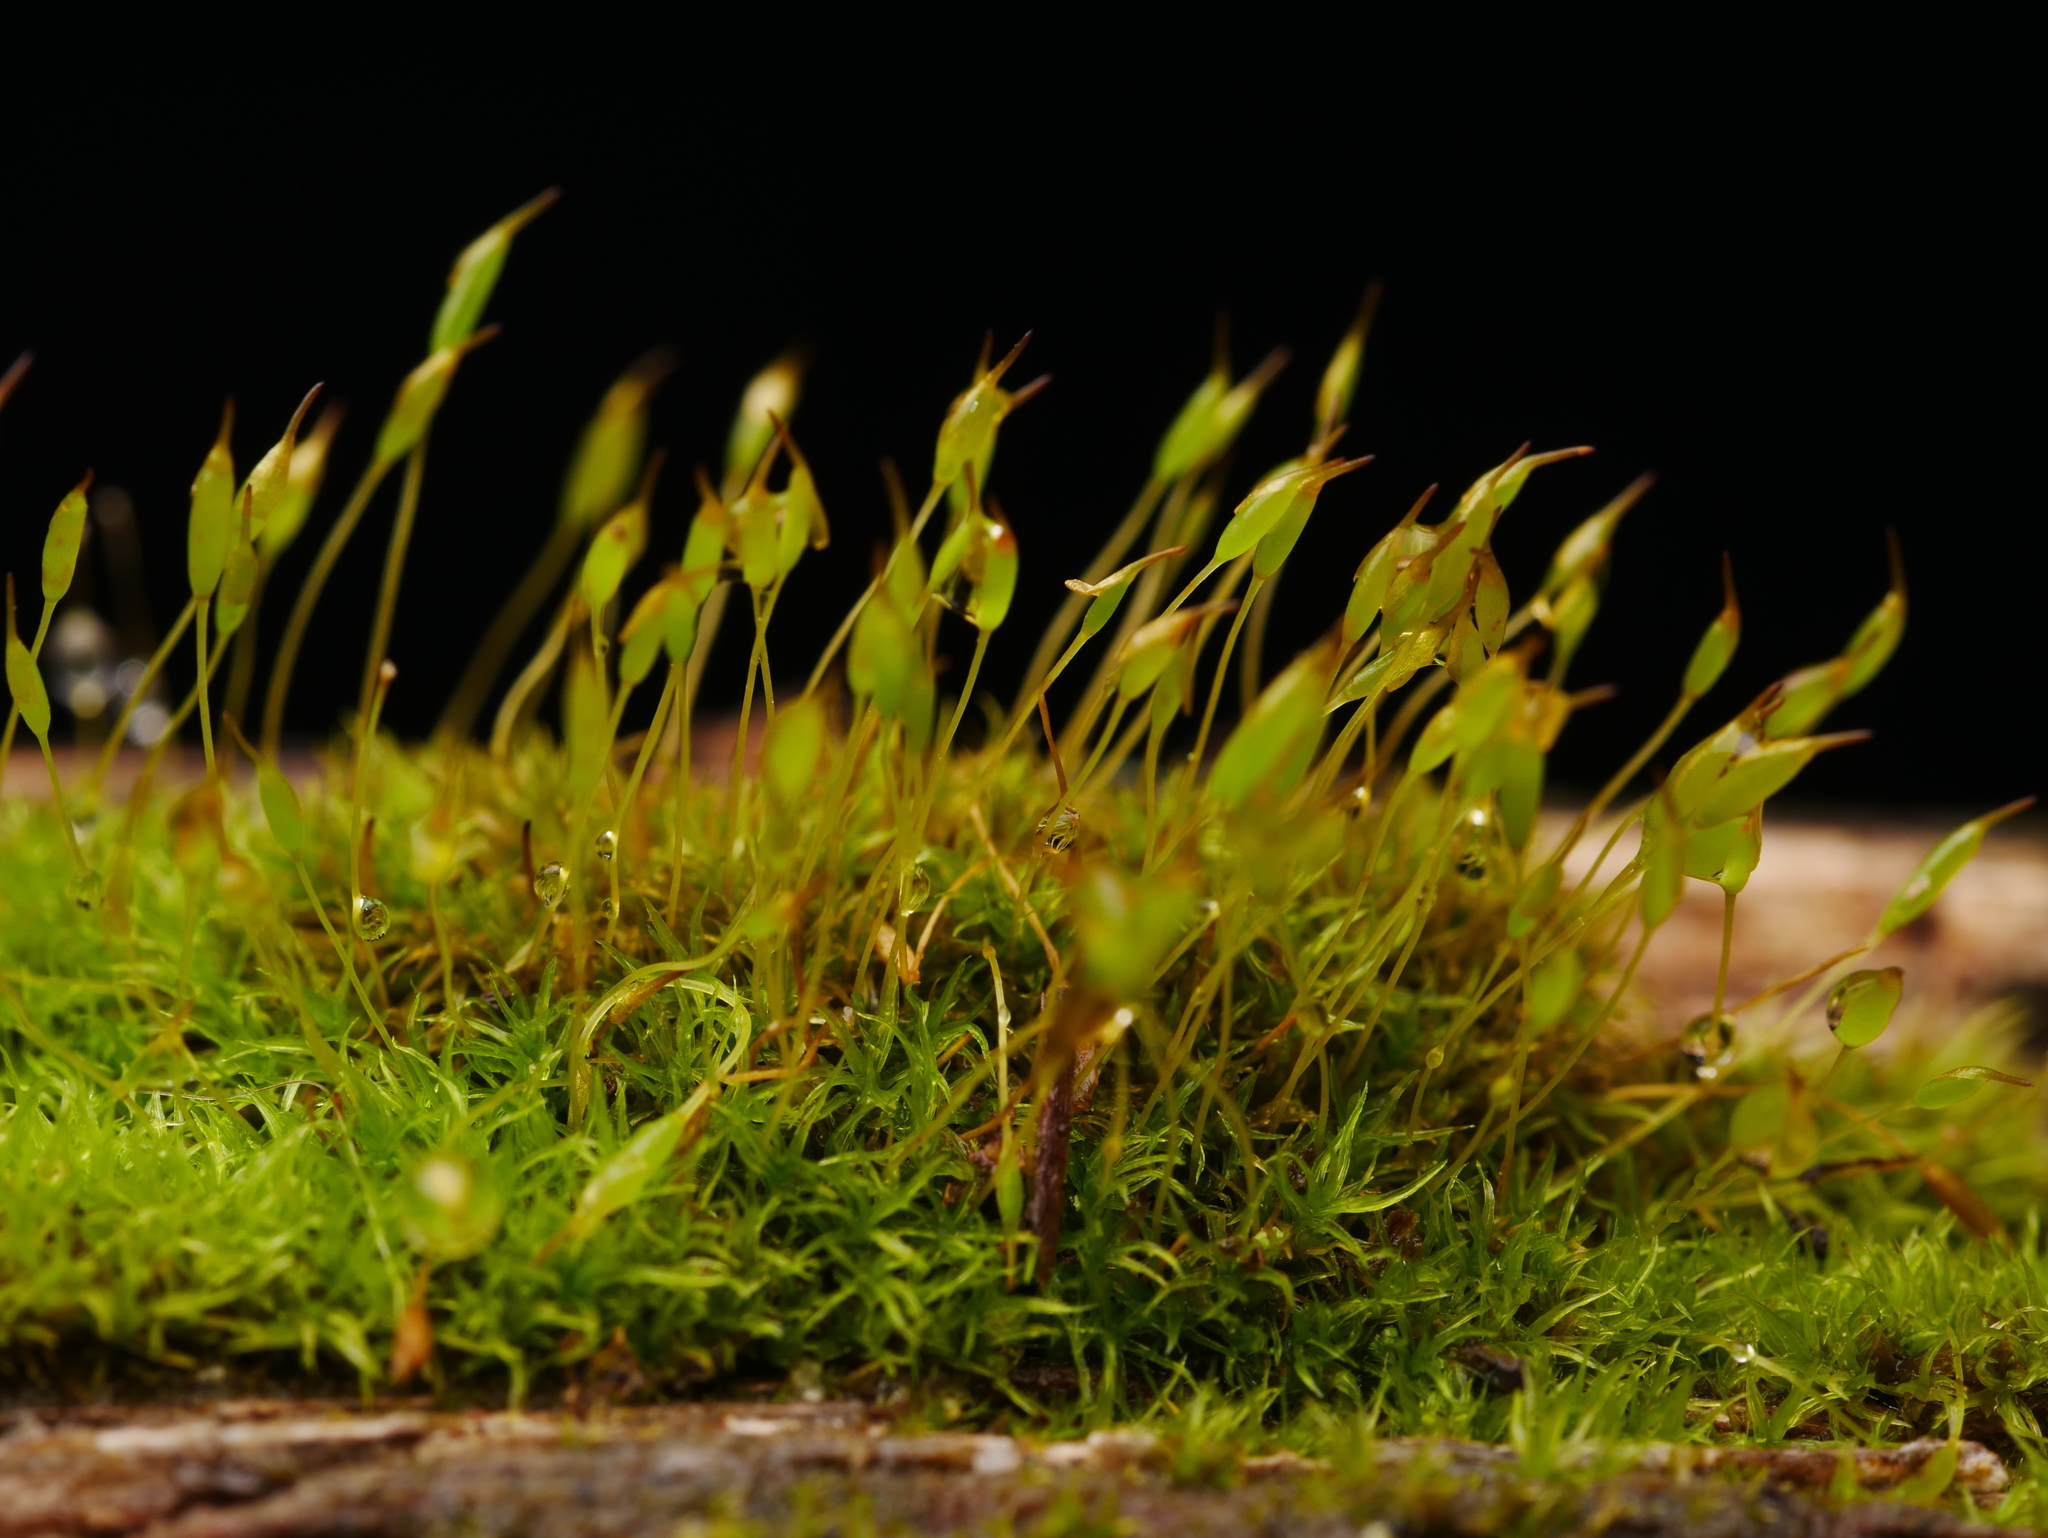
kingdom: Plantae
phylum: Bryophyta
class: Bryopsida
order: Dicranales
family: Rhabdoweisiaceae
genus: Dicranoweisia
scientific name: Dicranoweisia cirrata
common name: Common pincushion
